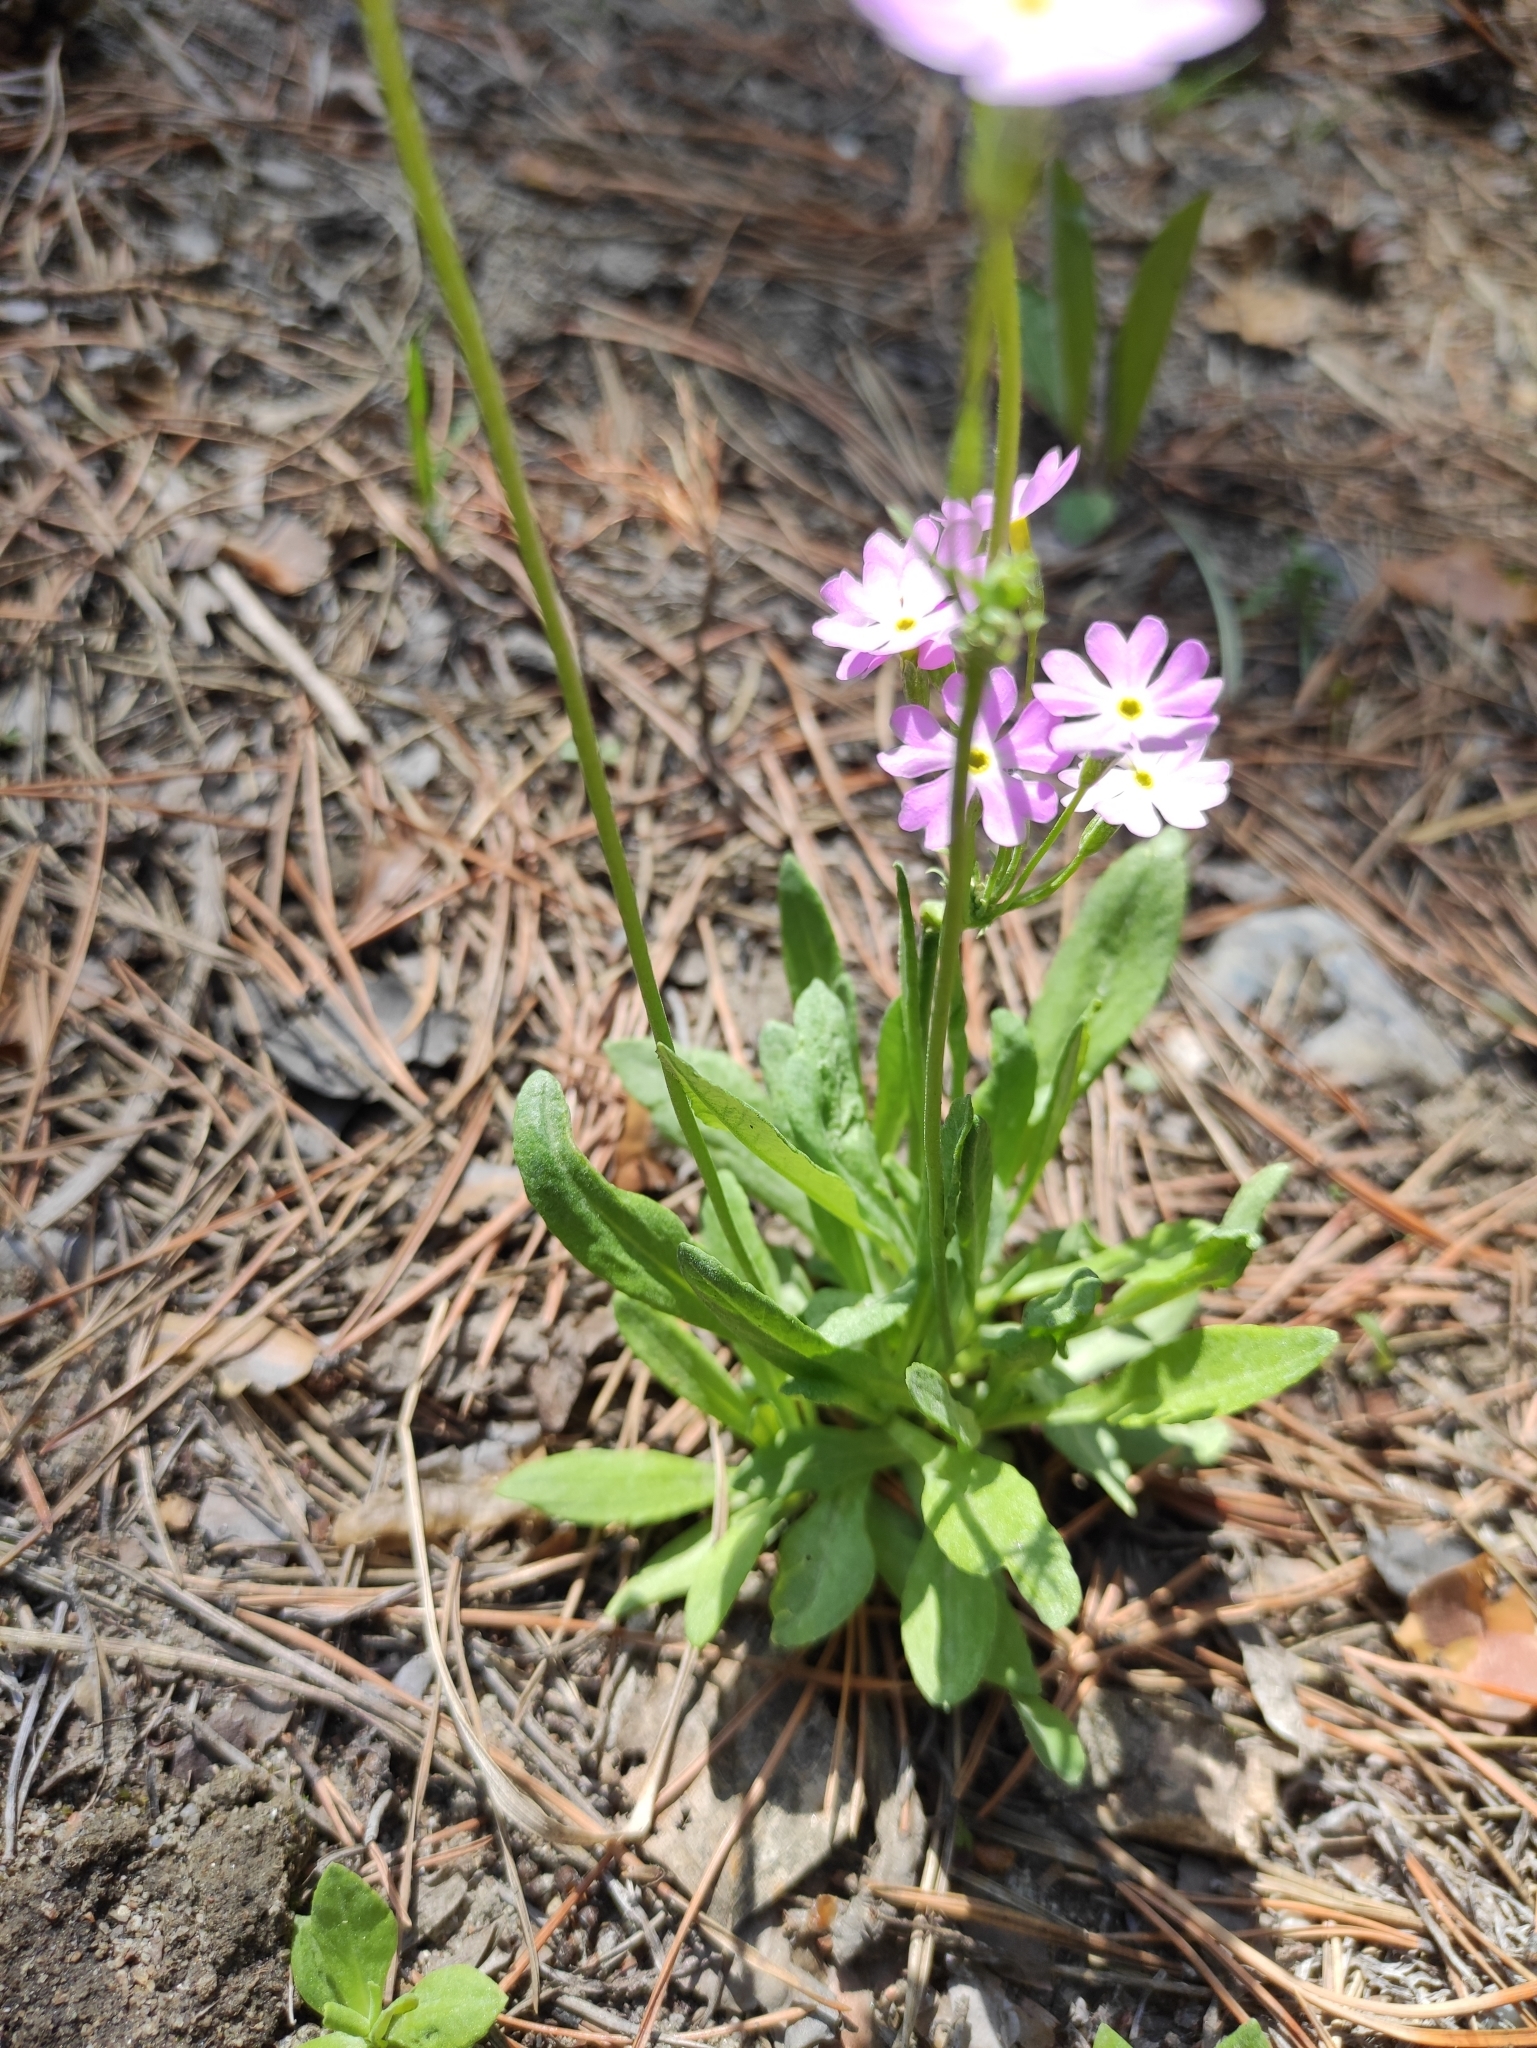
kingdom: Plantae
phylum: Tracheophyta
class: Magnoliopsida
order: Ericales
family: Primulaceae
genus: Primula
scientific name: Primula farinosa
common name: Bird's-eye primrose
